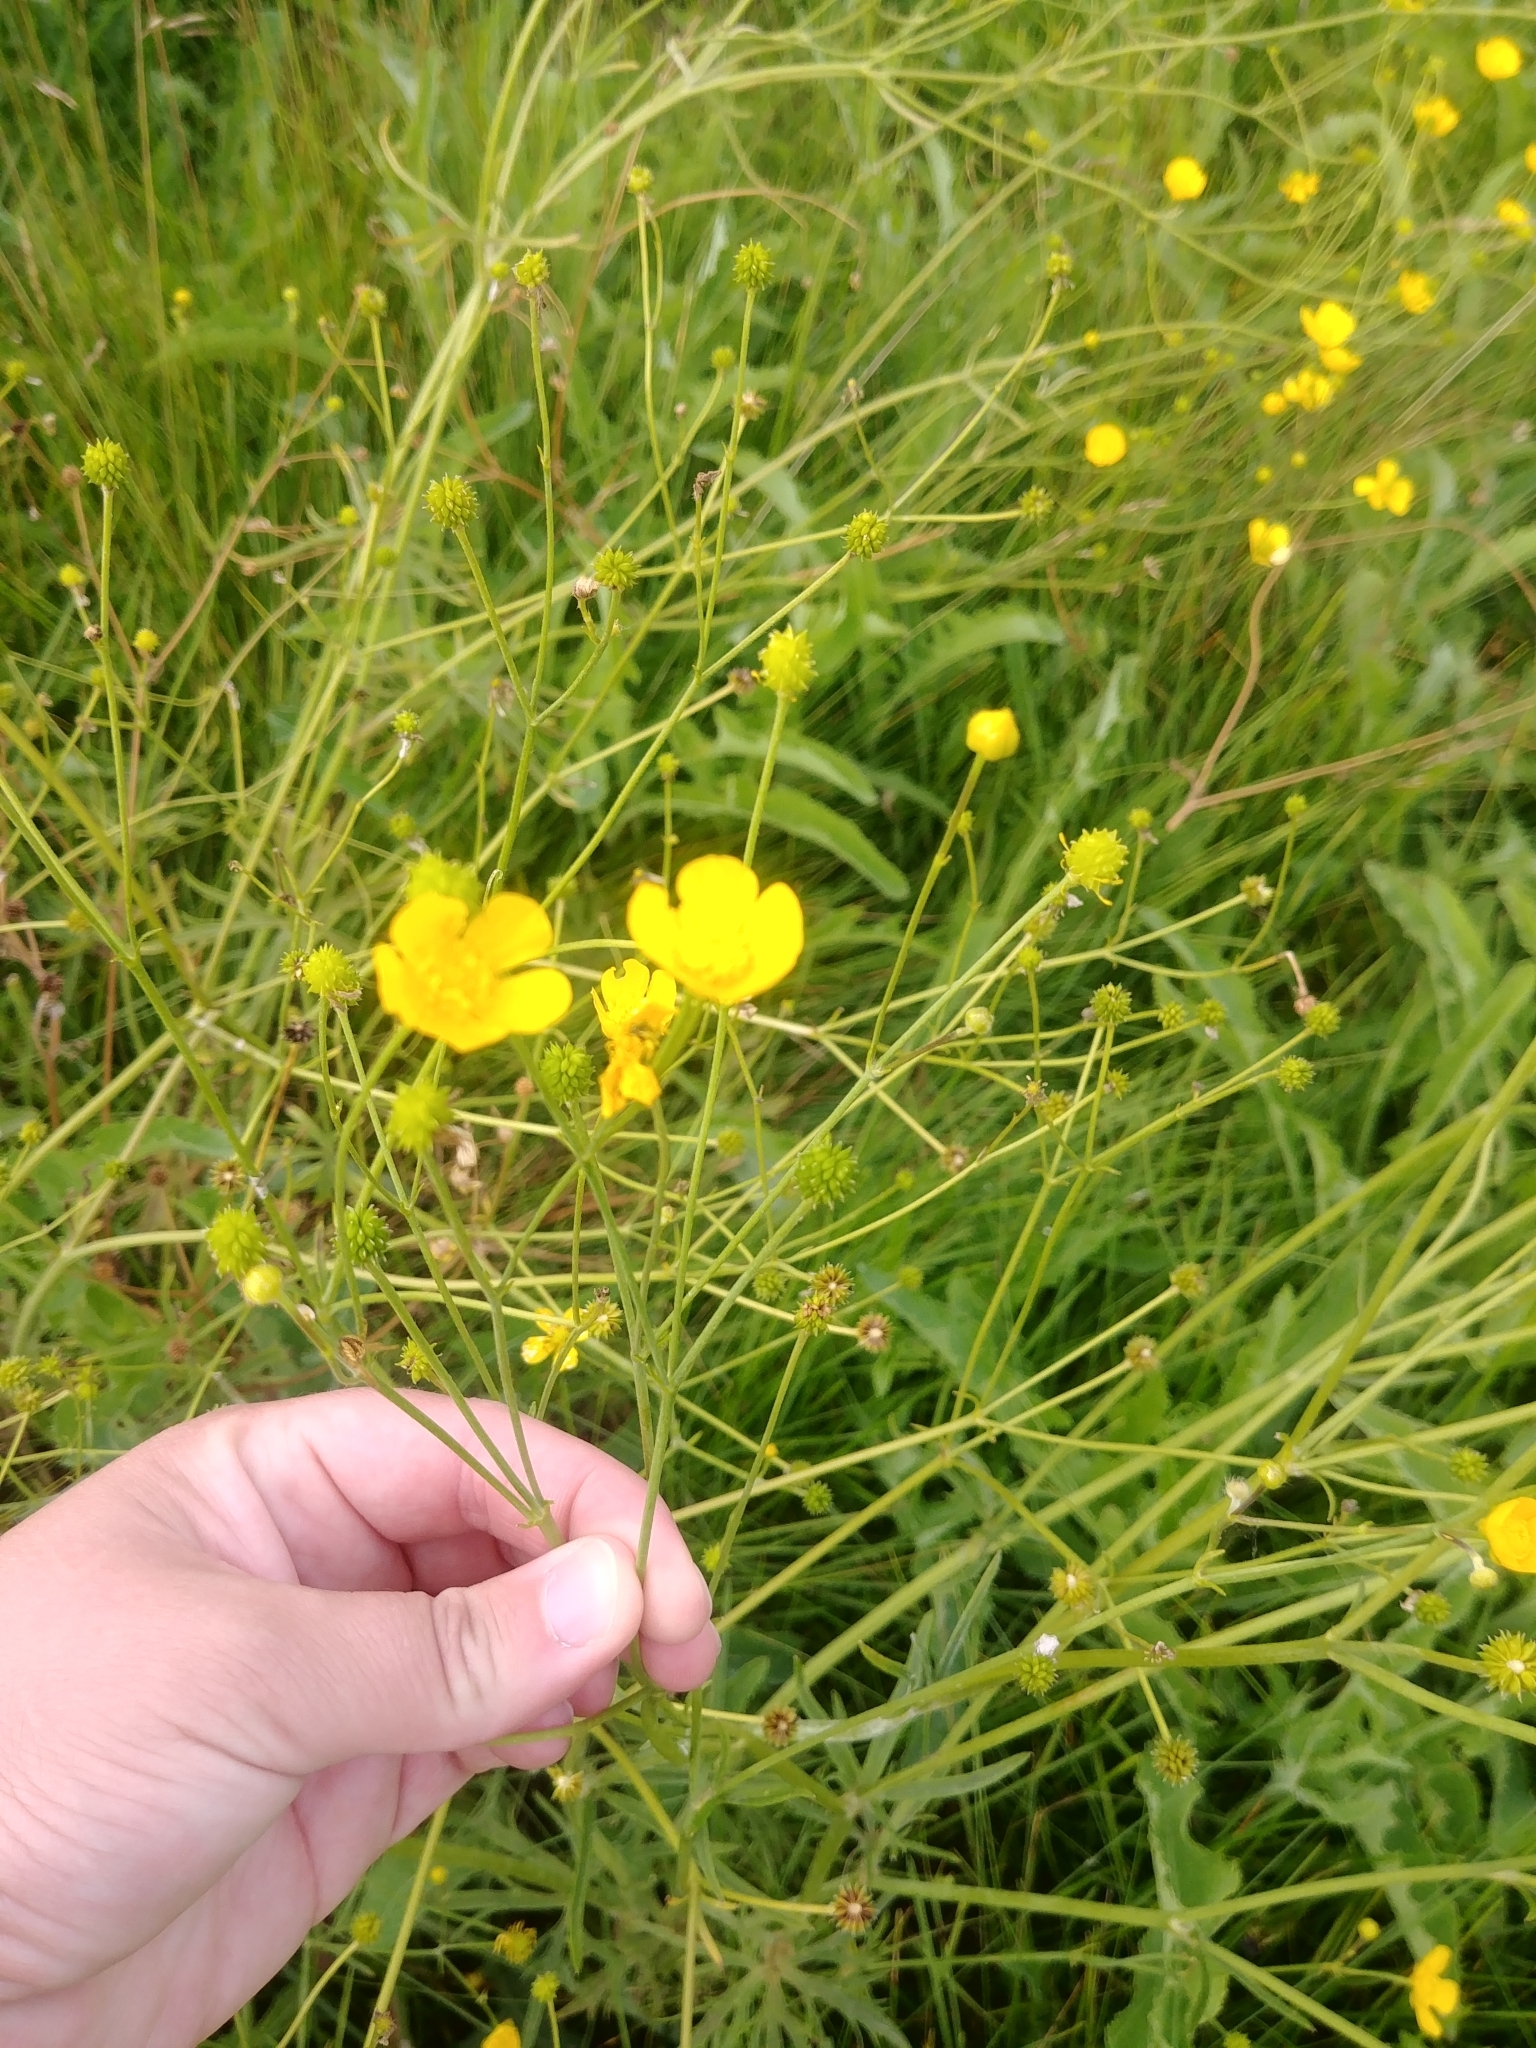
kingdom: Plantae
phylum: Tracheophyta
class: Magnoliopsida
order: Ranunculales
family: Ranunculaceae
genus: Ranunculus
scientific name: Ranunculus acris
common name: Meadow buttercup
